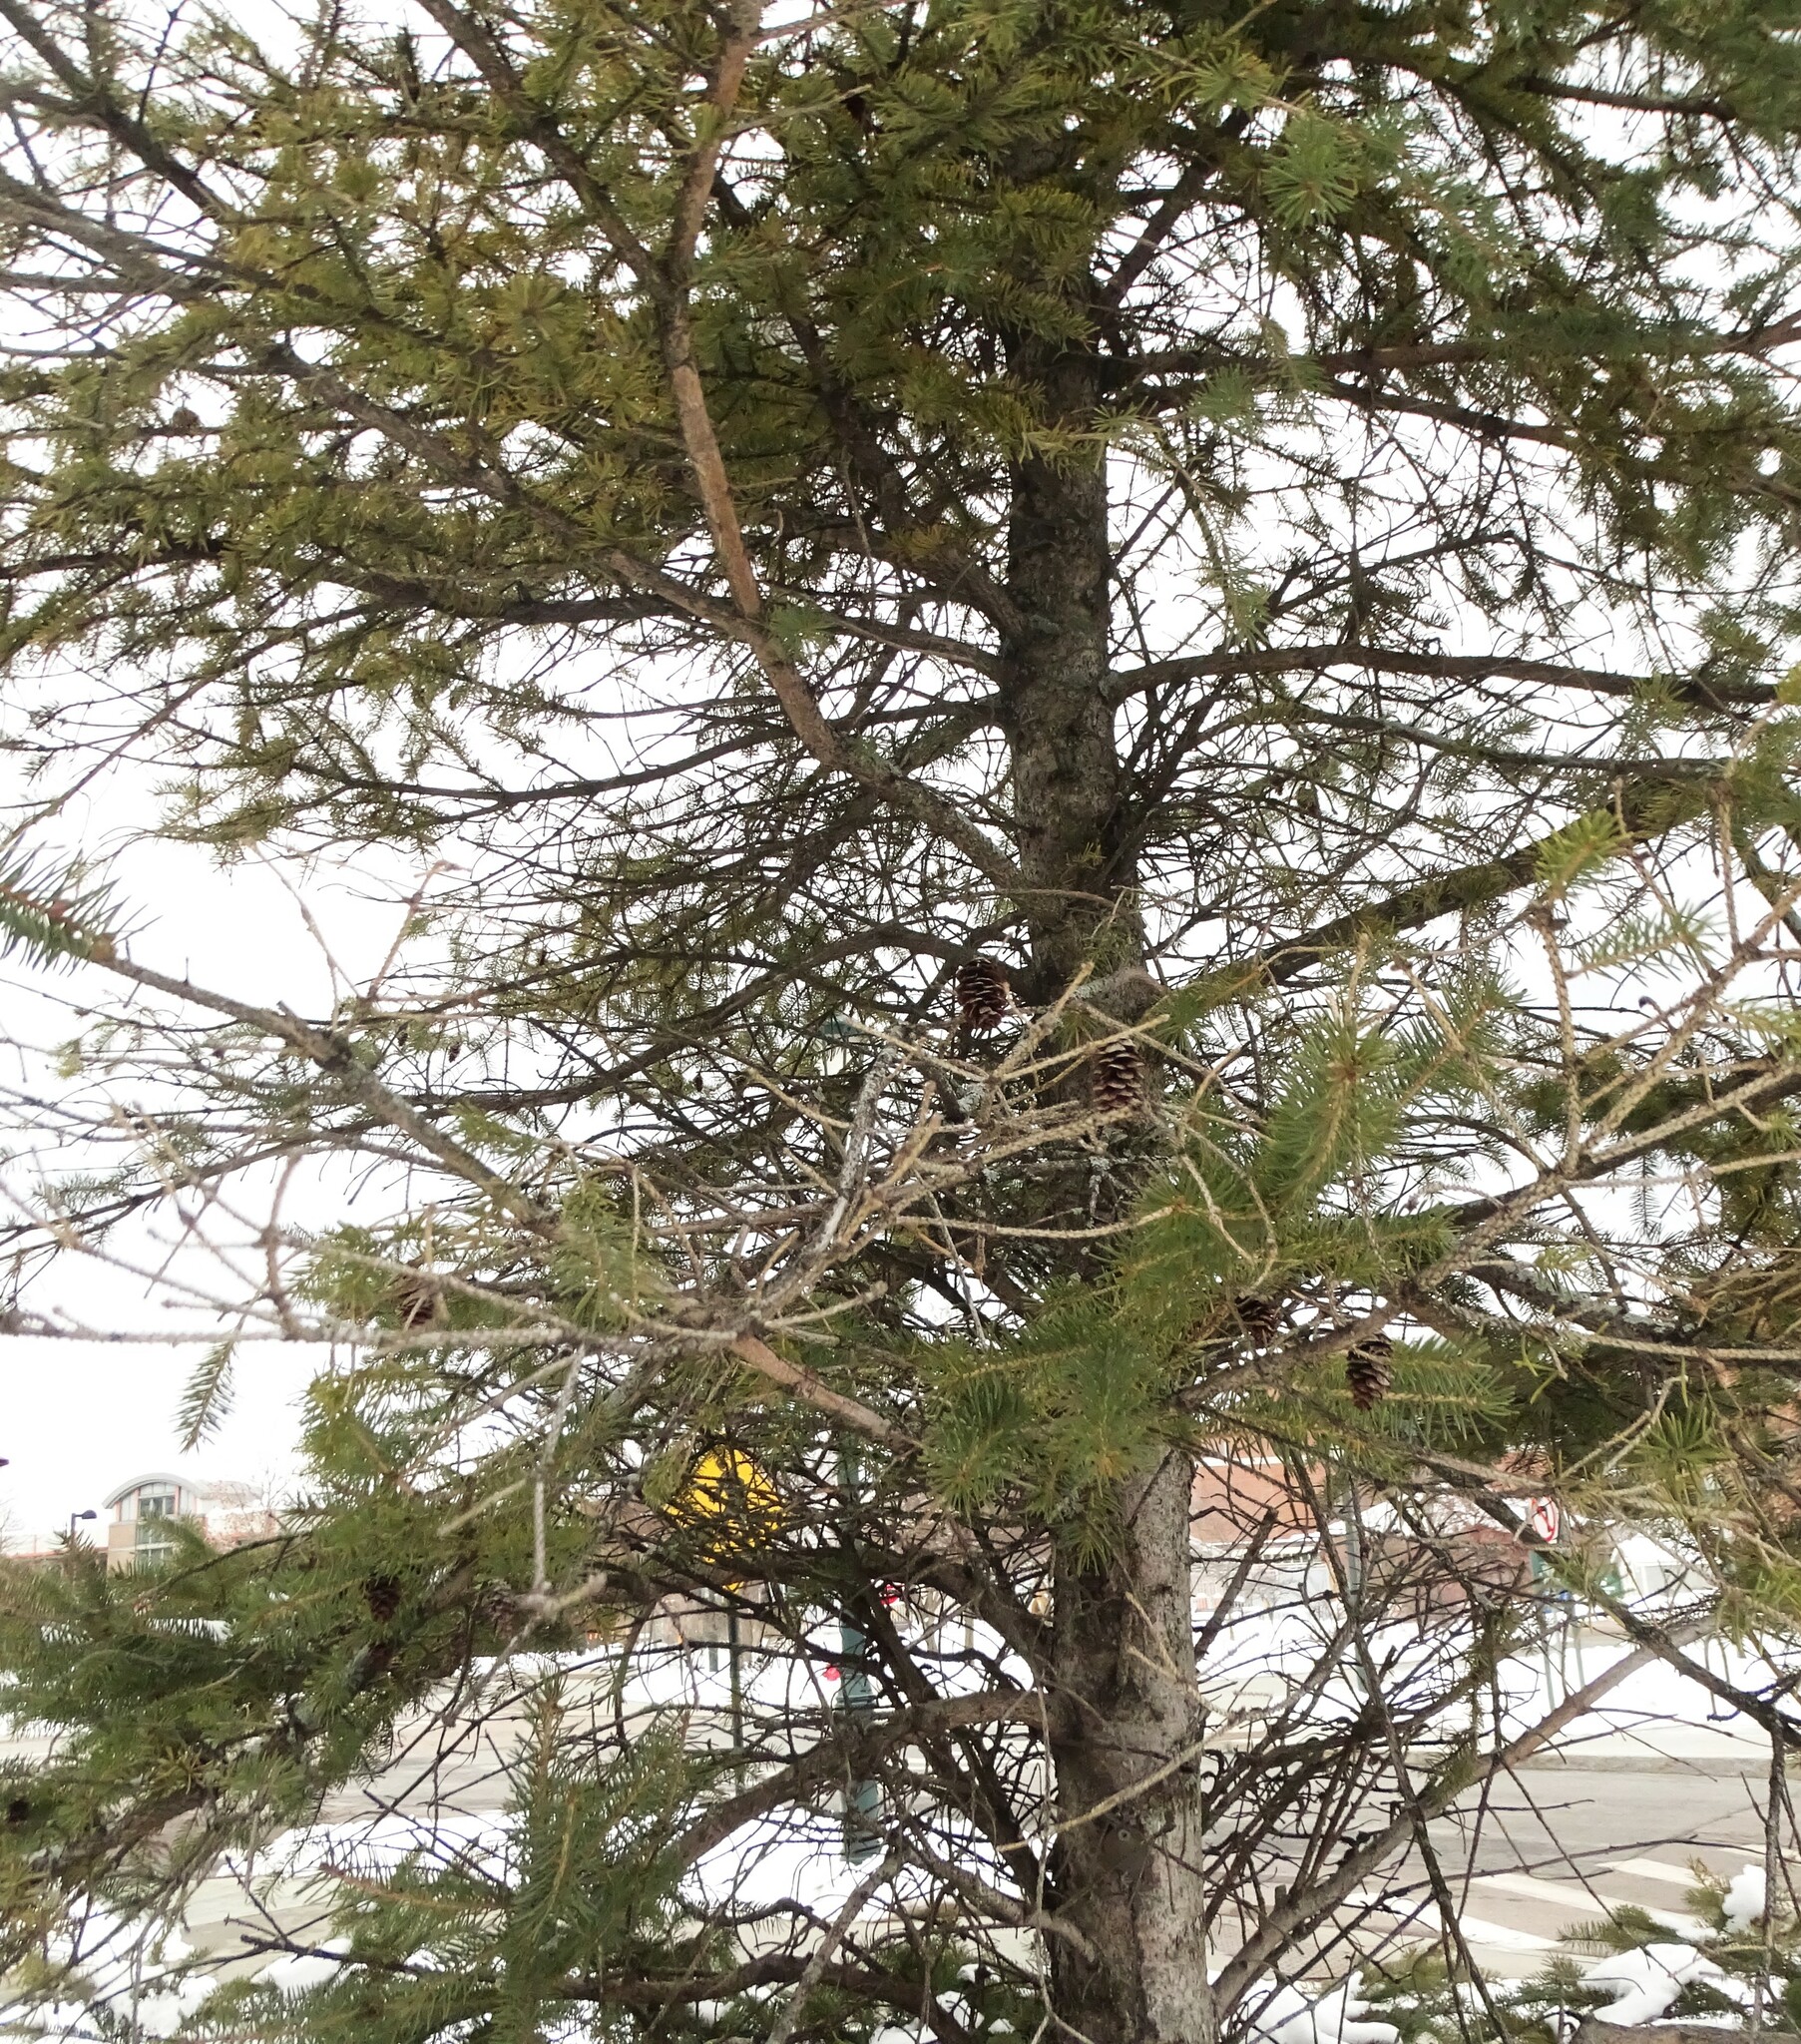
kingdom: Plantae
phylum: Tracheophyta
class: Pinopsida
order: Pinales
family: Pinaceae
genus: Picea
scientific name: Picea glauca
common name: White spruce
